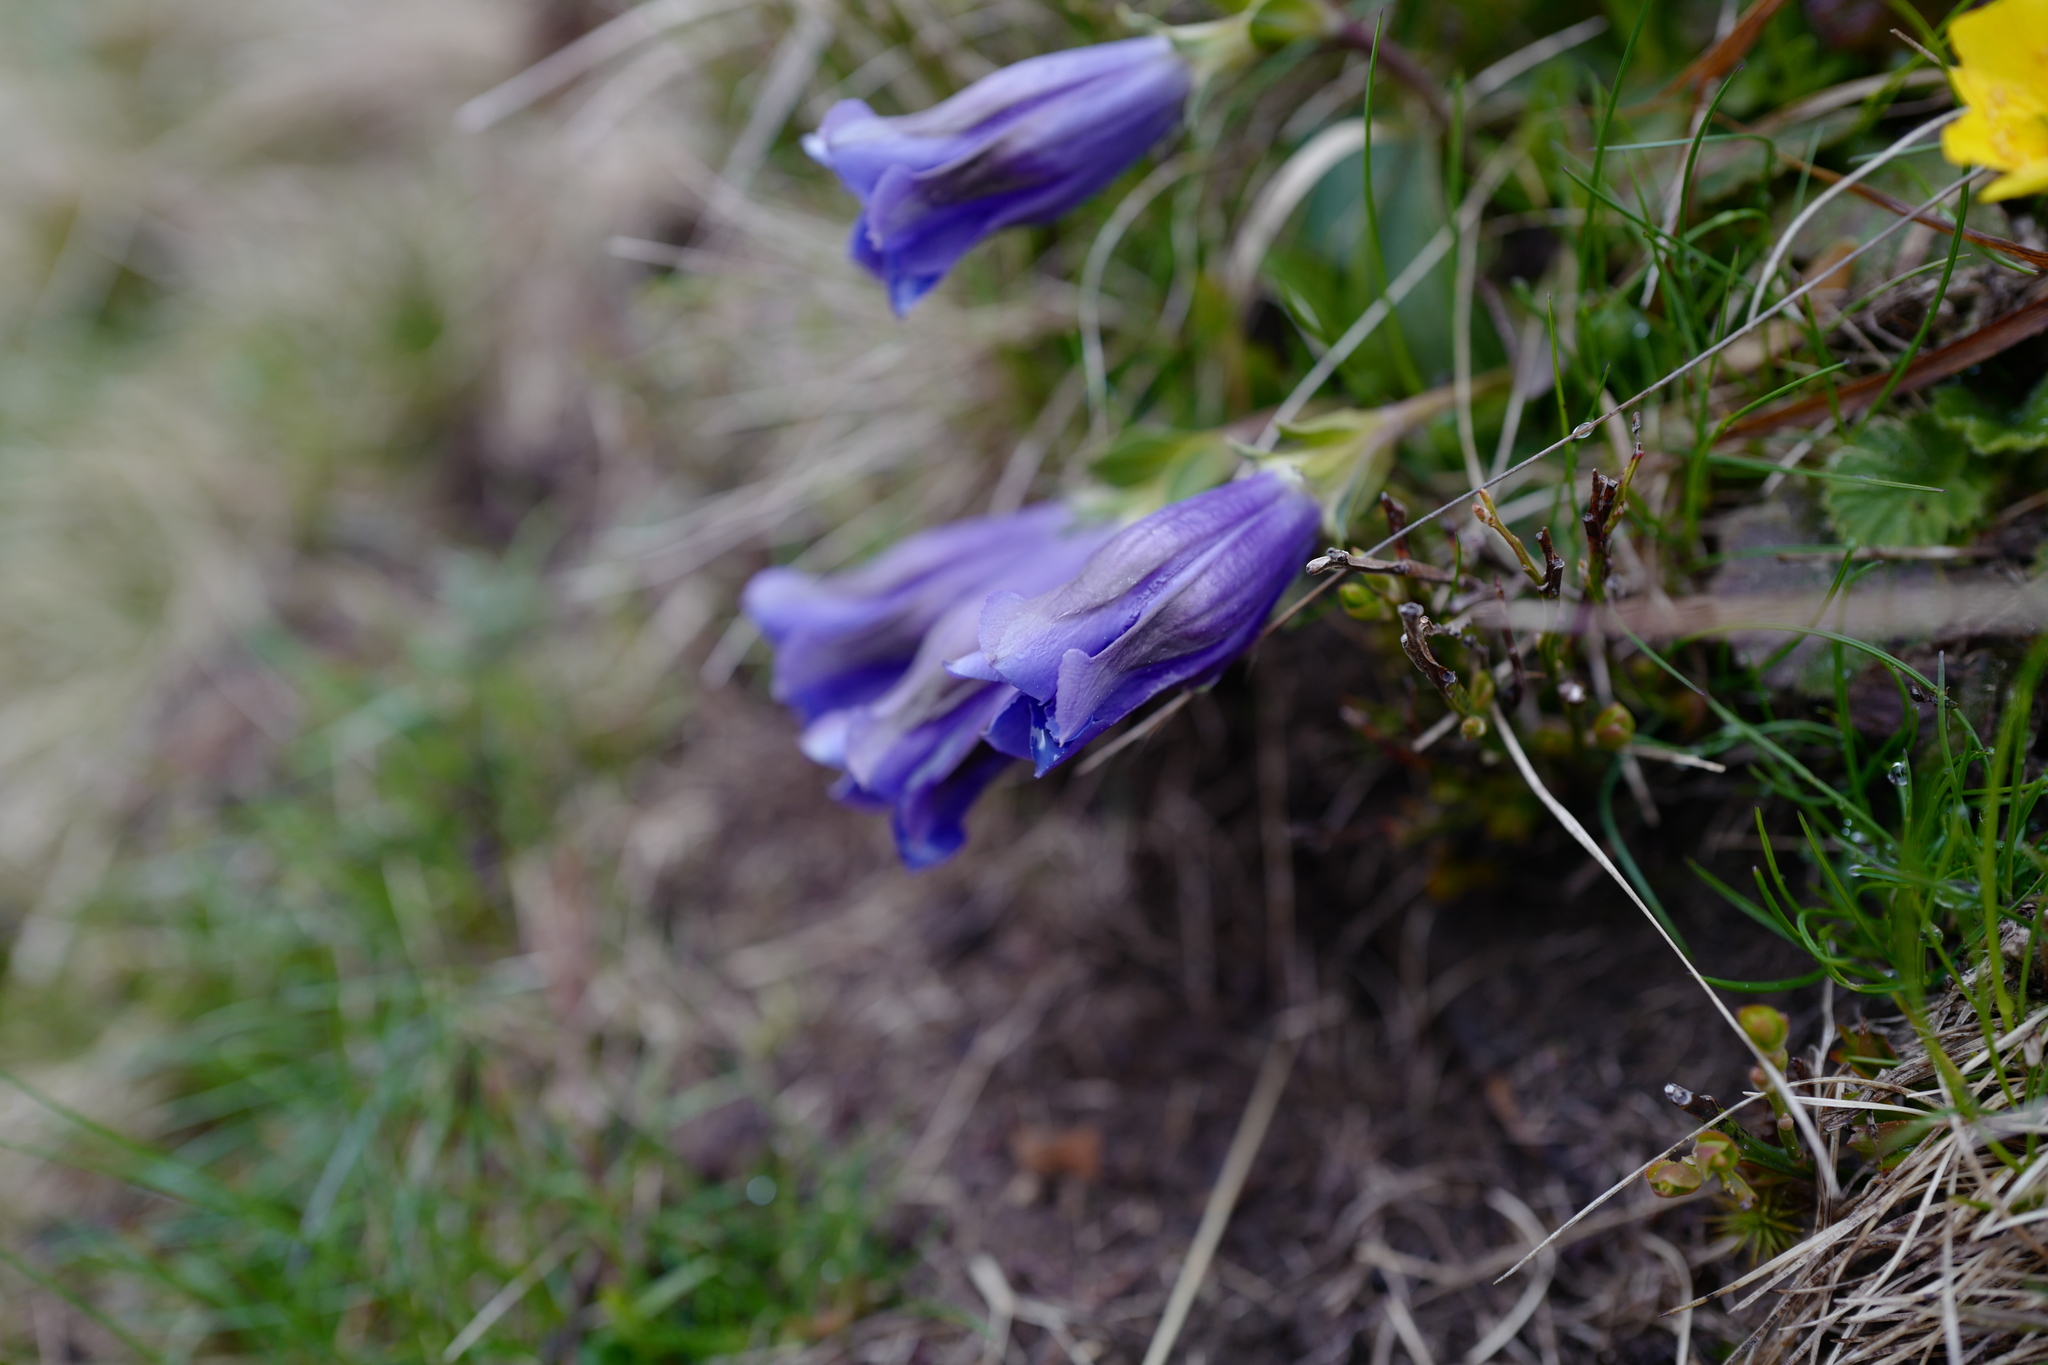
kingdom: Plantae
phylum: Tracheophyta
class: Magnoliopsida
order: Gentianales
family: Gentianaceae
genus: Gentiana
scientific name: Gentiana acaulis
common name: Trumpet gentian
